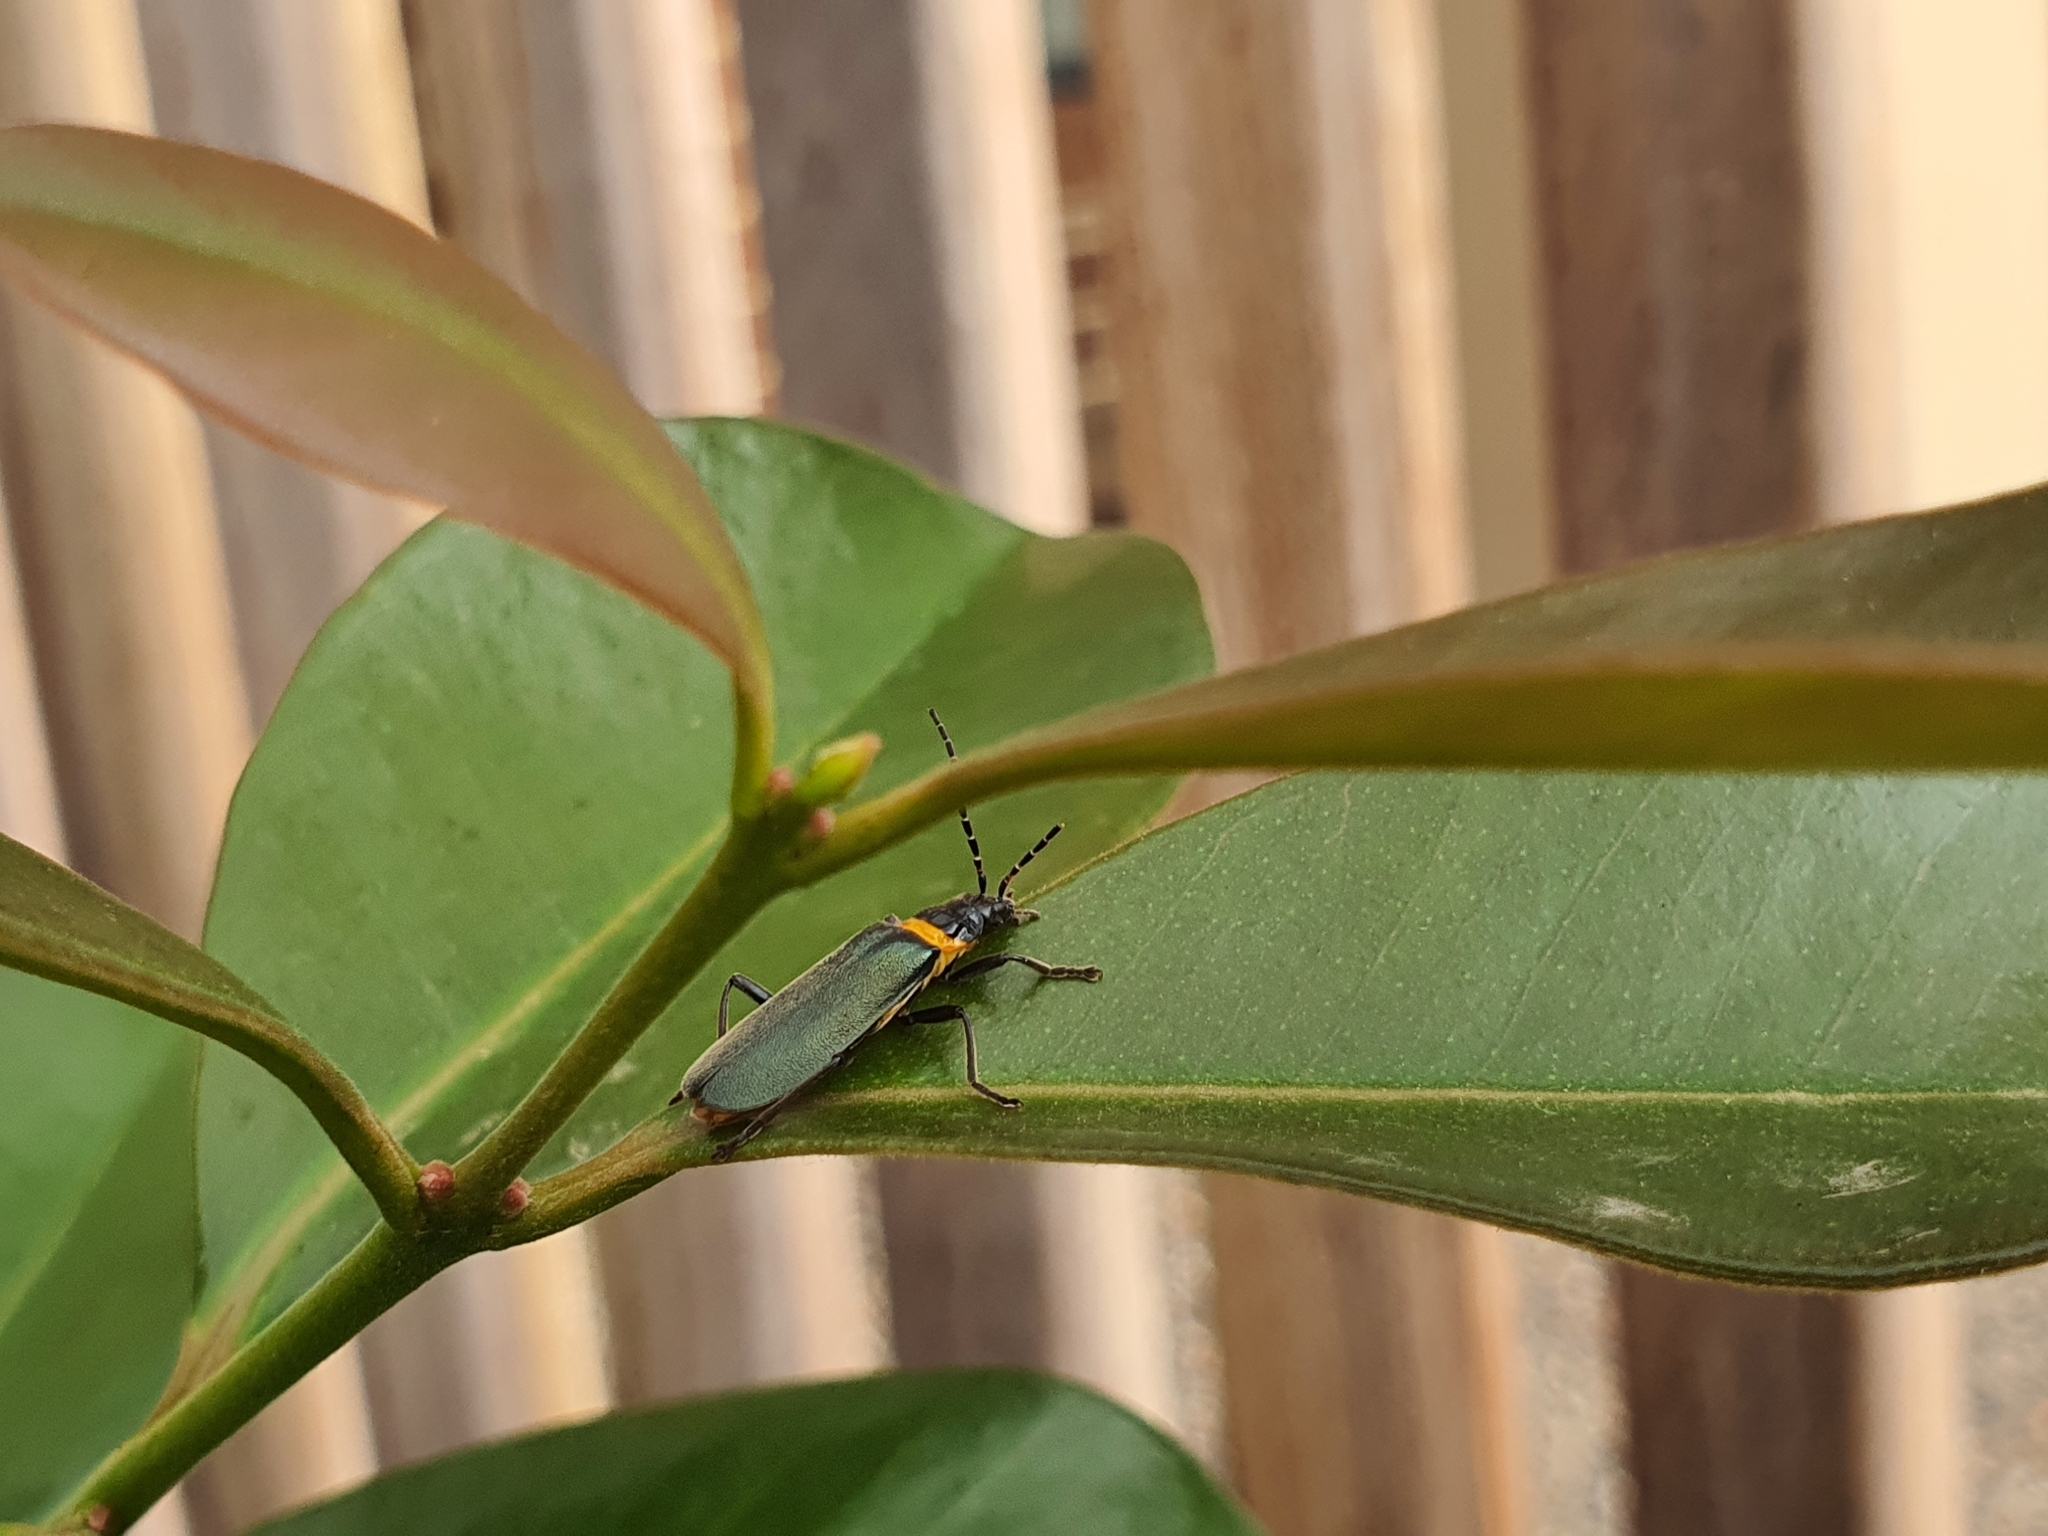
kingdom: Animalia
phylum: Arthropoda
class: Insecta
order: Coleoptera
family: Cantharidae
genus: Chauliognathus
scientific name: Chauliognathus
